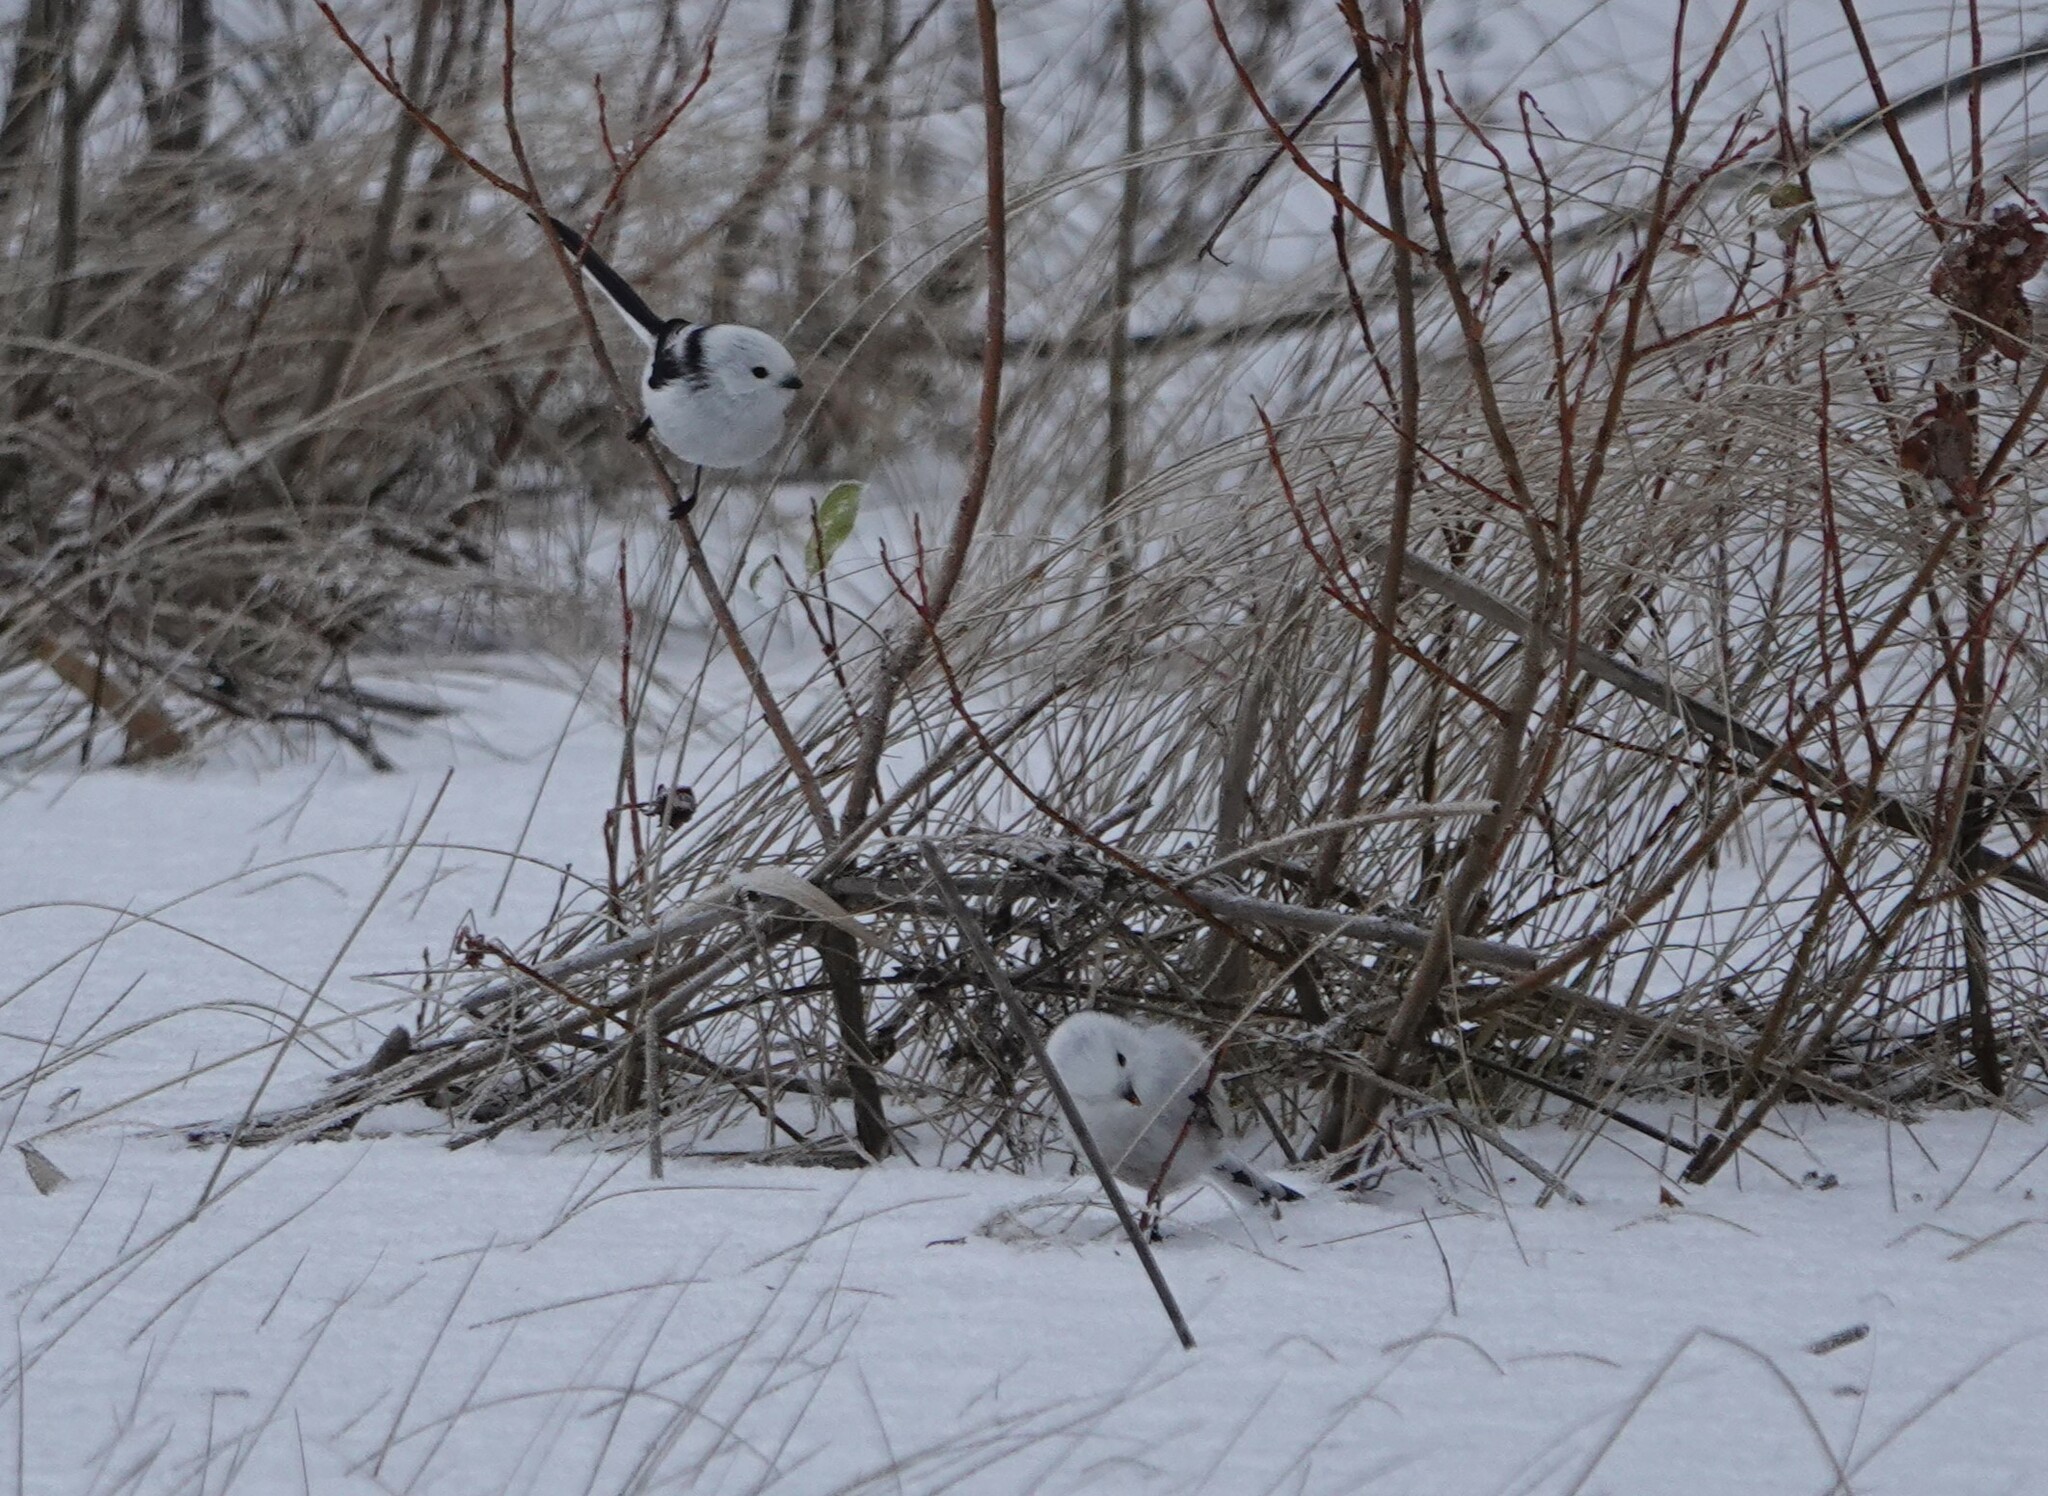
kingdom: Animalia
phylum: Chordata
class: Aves
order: Passeriformes
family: Aegithalidae
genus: Aegithalos
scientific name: Aegithalos caudatus
